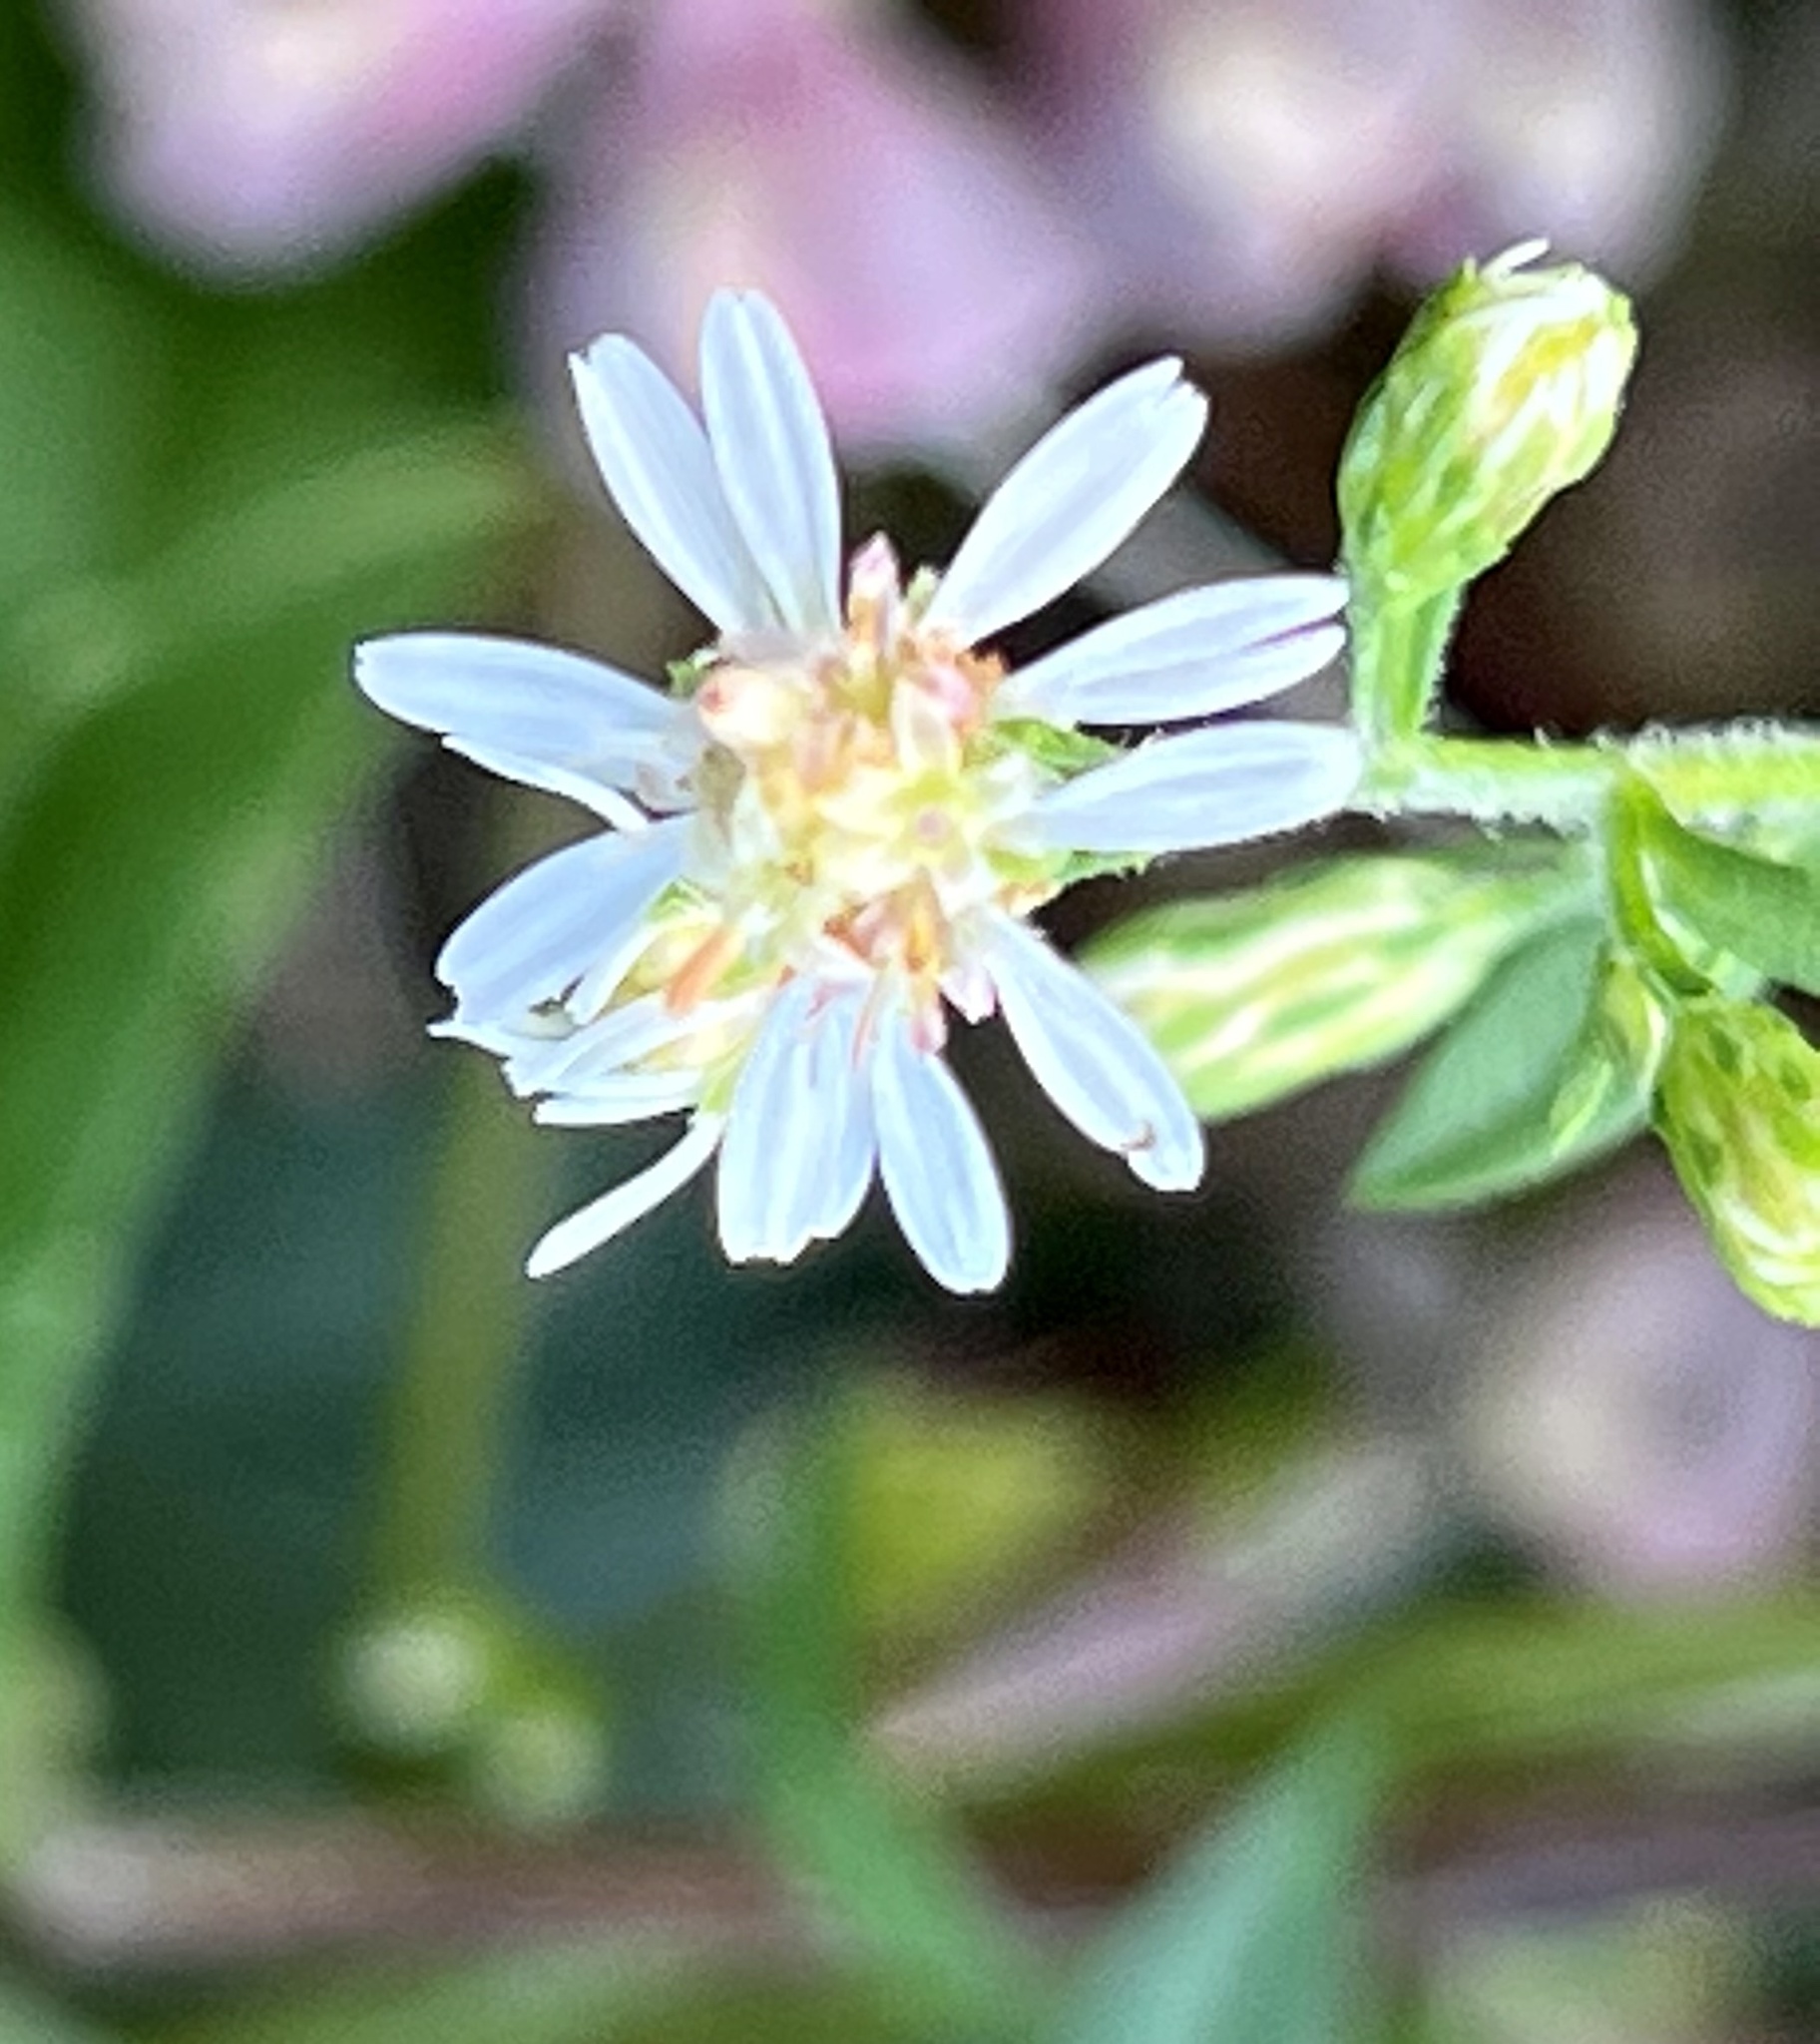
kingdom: Plantae
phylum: Tracheophyta
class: Magnoliopsida
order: Asterales
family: Asteraceae
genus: Symphyotrichum
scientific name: Symphyotrichum lateriflorum
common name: Calico aster
